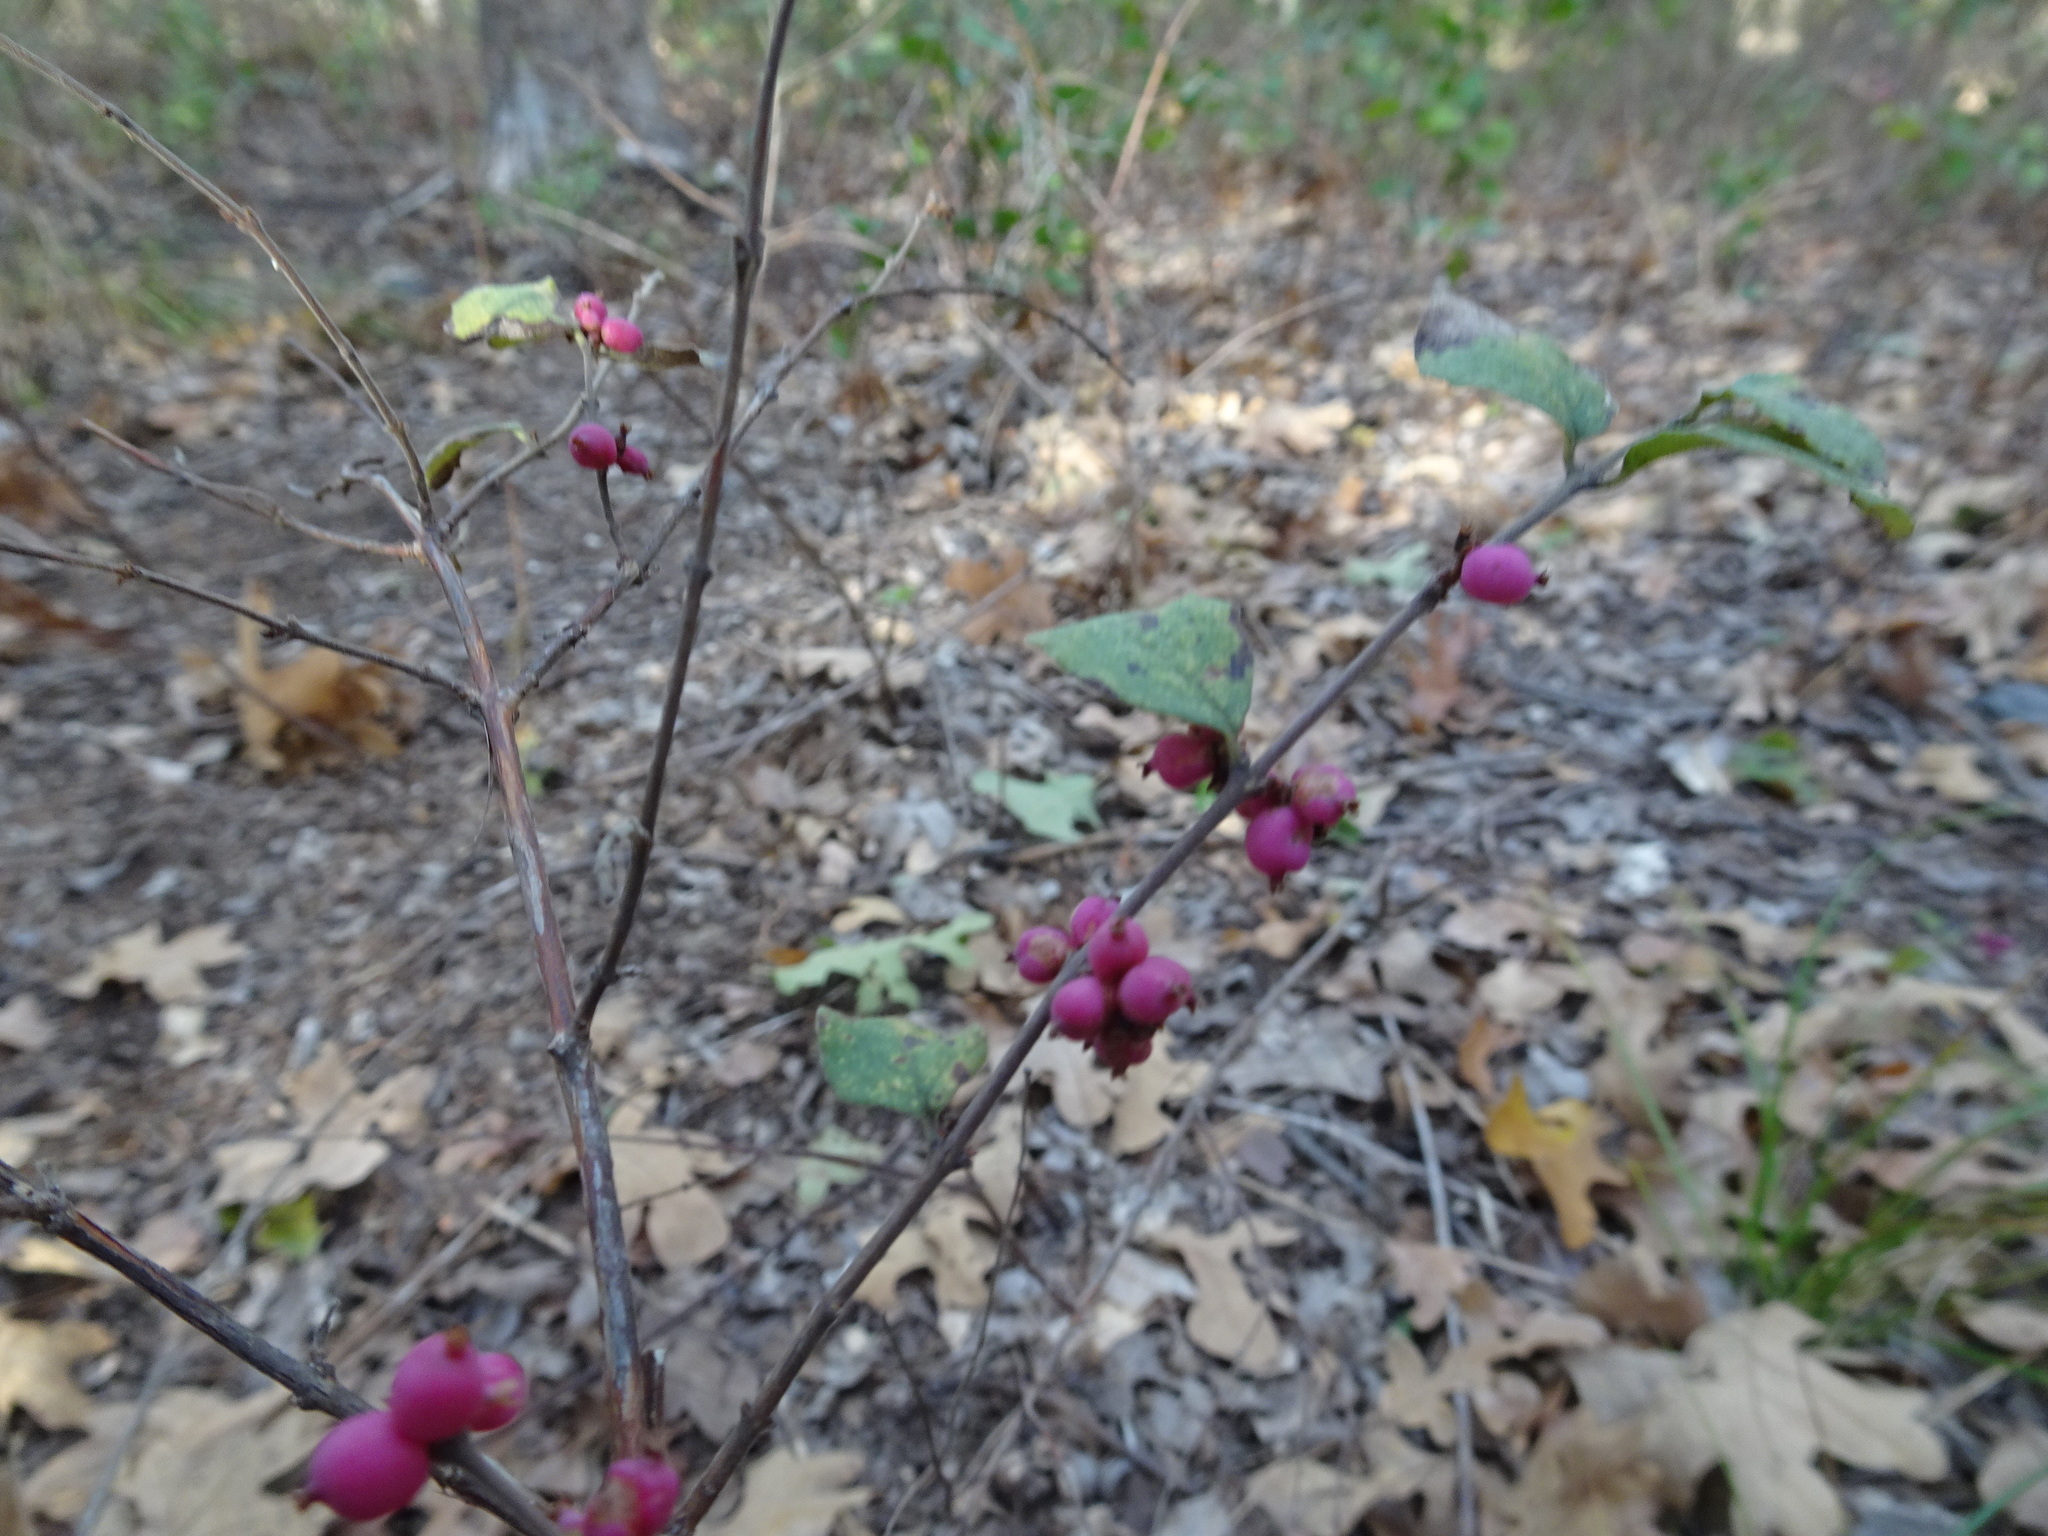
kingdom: Plantae
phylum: Tracheophyta
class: Magnoliopsida
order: Dipsacales
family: Caprifoliaceae
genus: Symphoricarpos
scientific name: Symphoricarpos orbiculatus
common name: Coralberry
